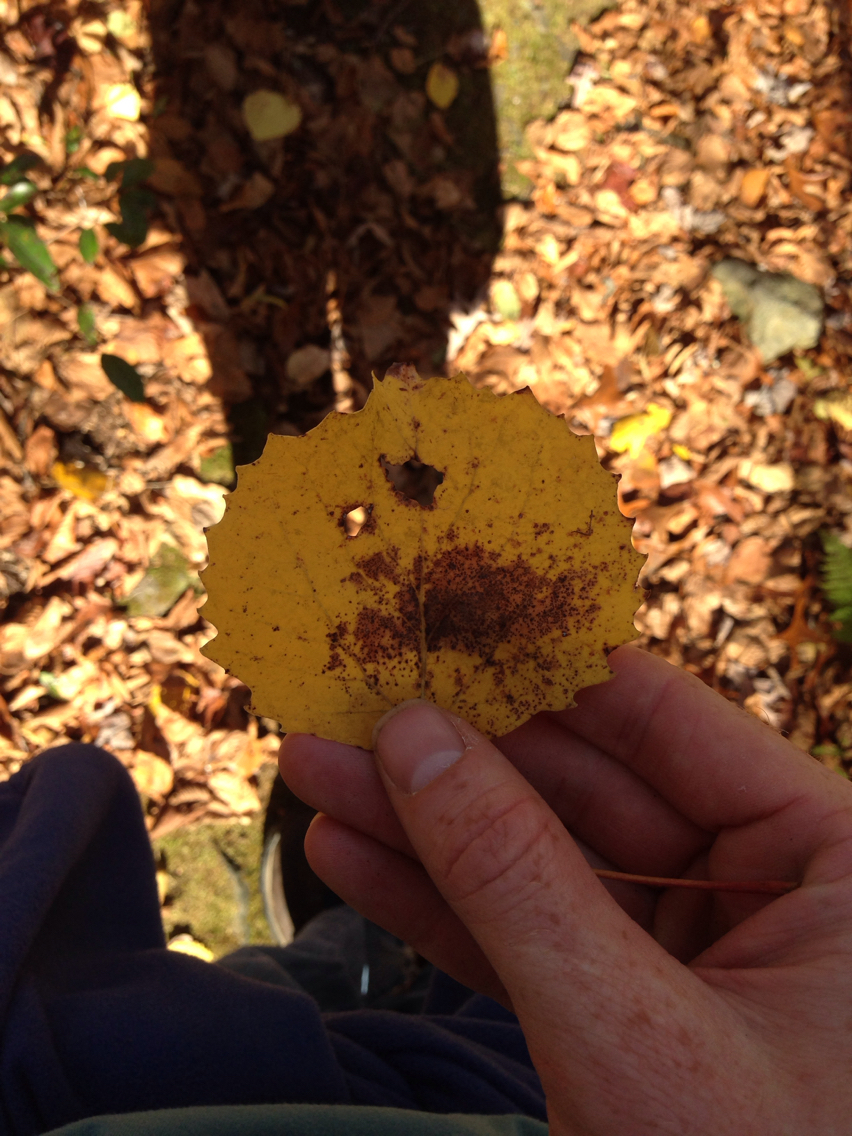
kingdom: Plantae
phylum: Tracheophyta
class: Magnoliopsida
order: Malpighiales
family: Salicaceae
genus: Populus
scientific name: Populus grandidentata
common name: Bigtooth aspen
